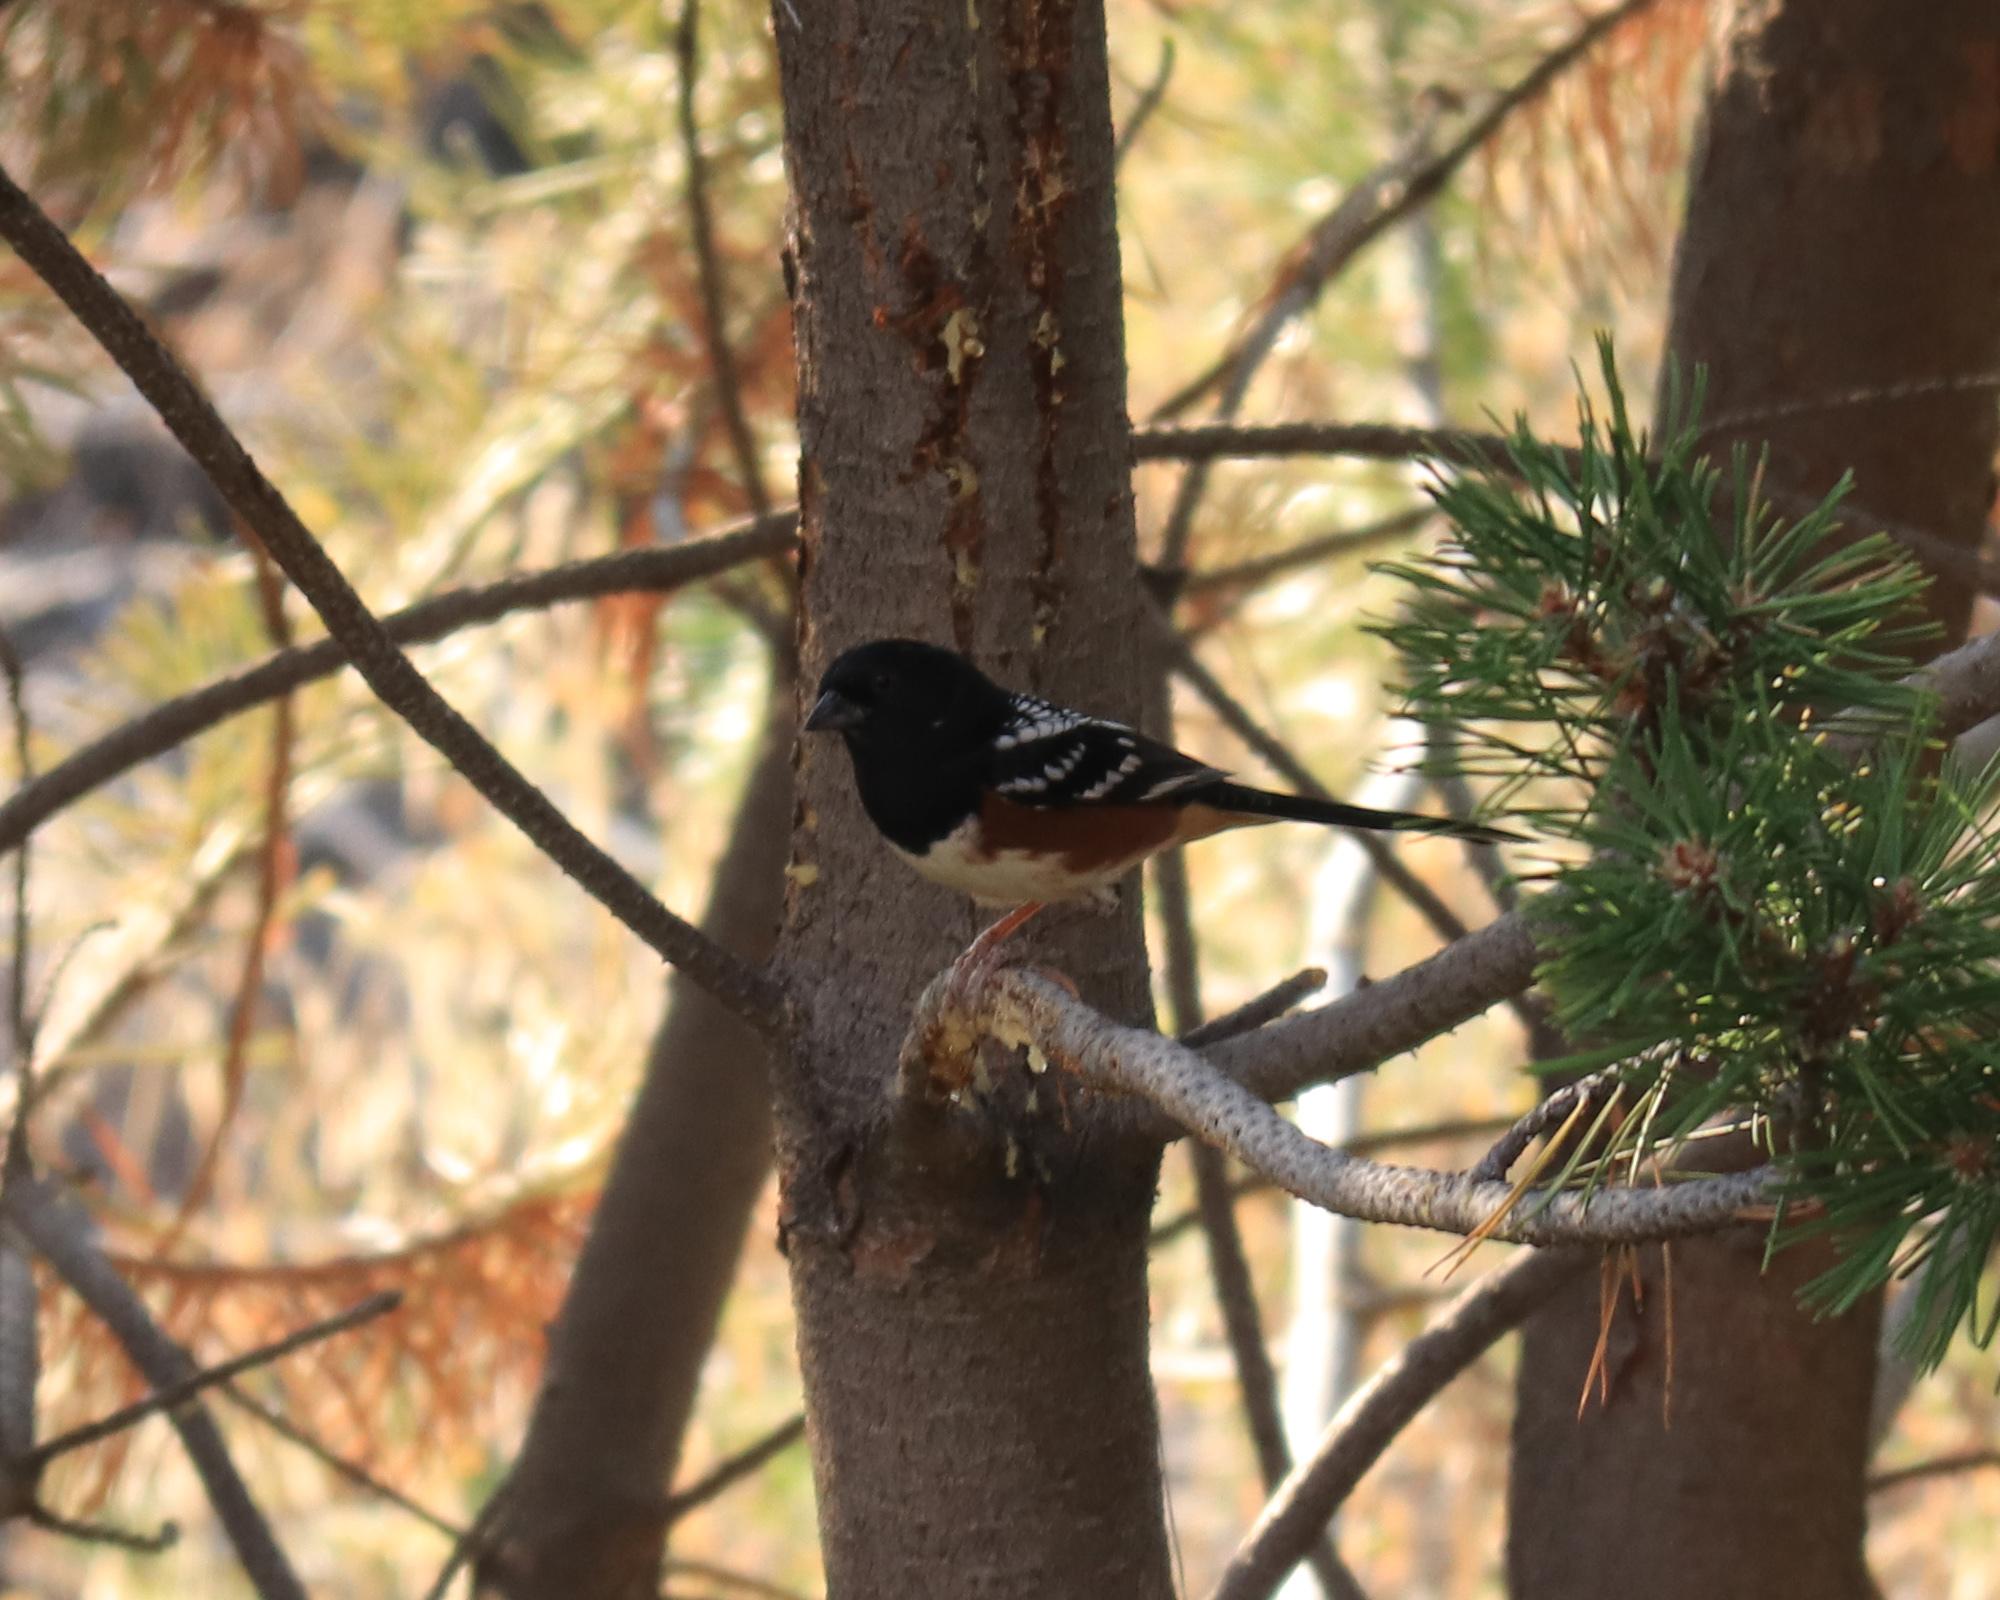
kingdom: Animalia
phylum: Chordata
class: Aves
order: Passeriformes
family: Passerellidae
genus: Pipilo
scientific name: Pipilo maculatus
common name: Spotted towhee
